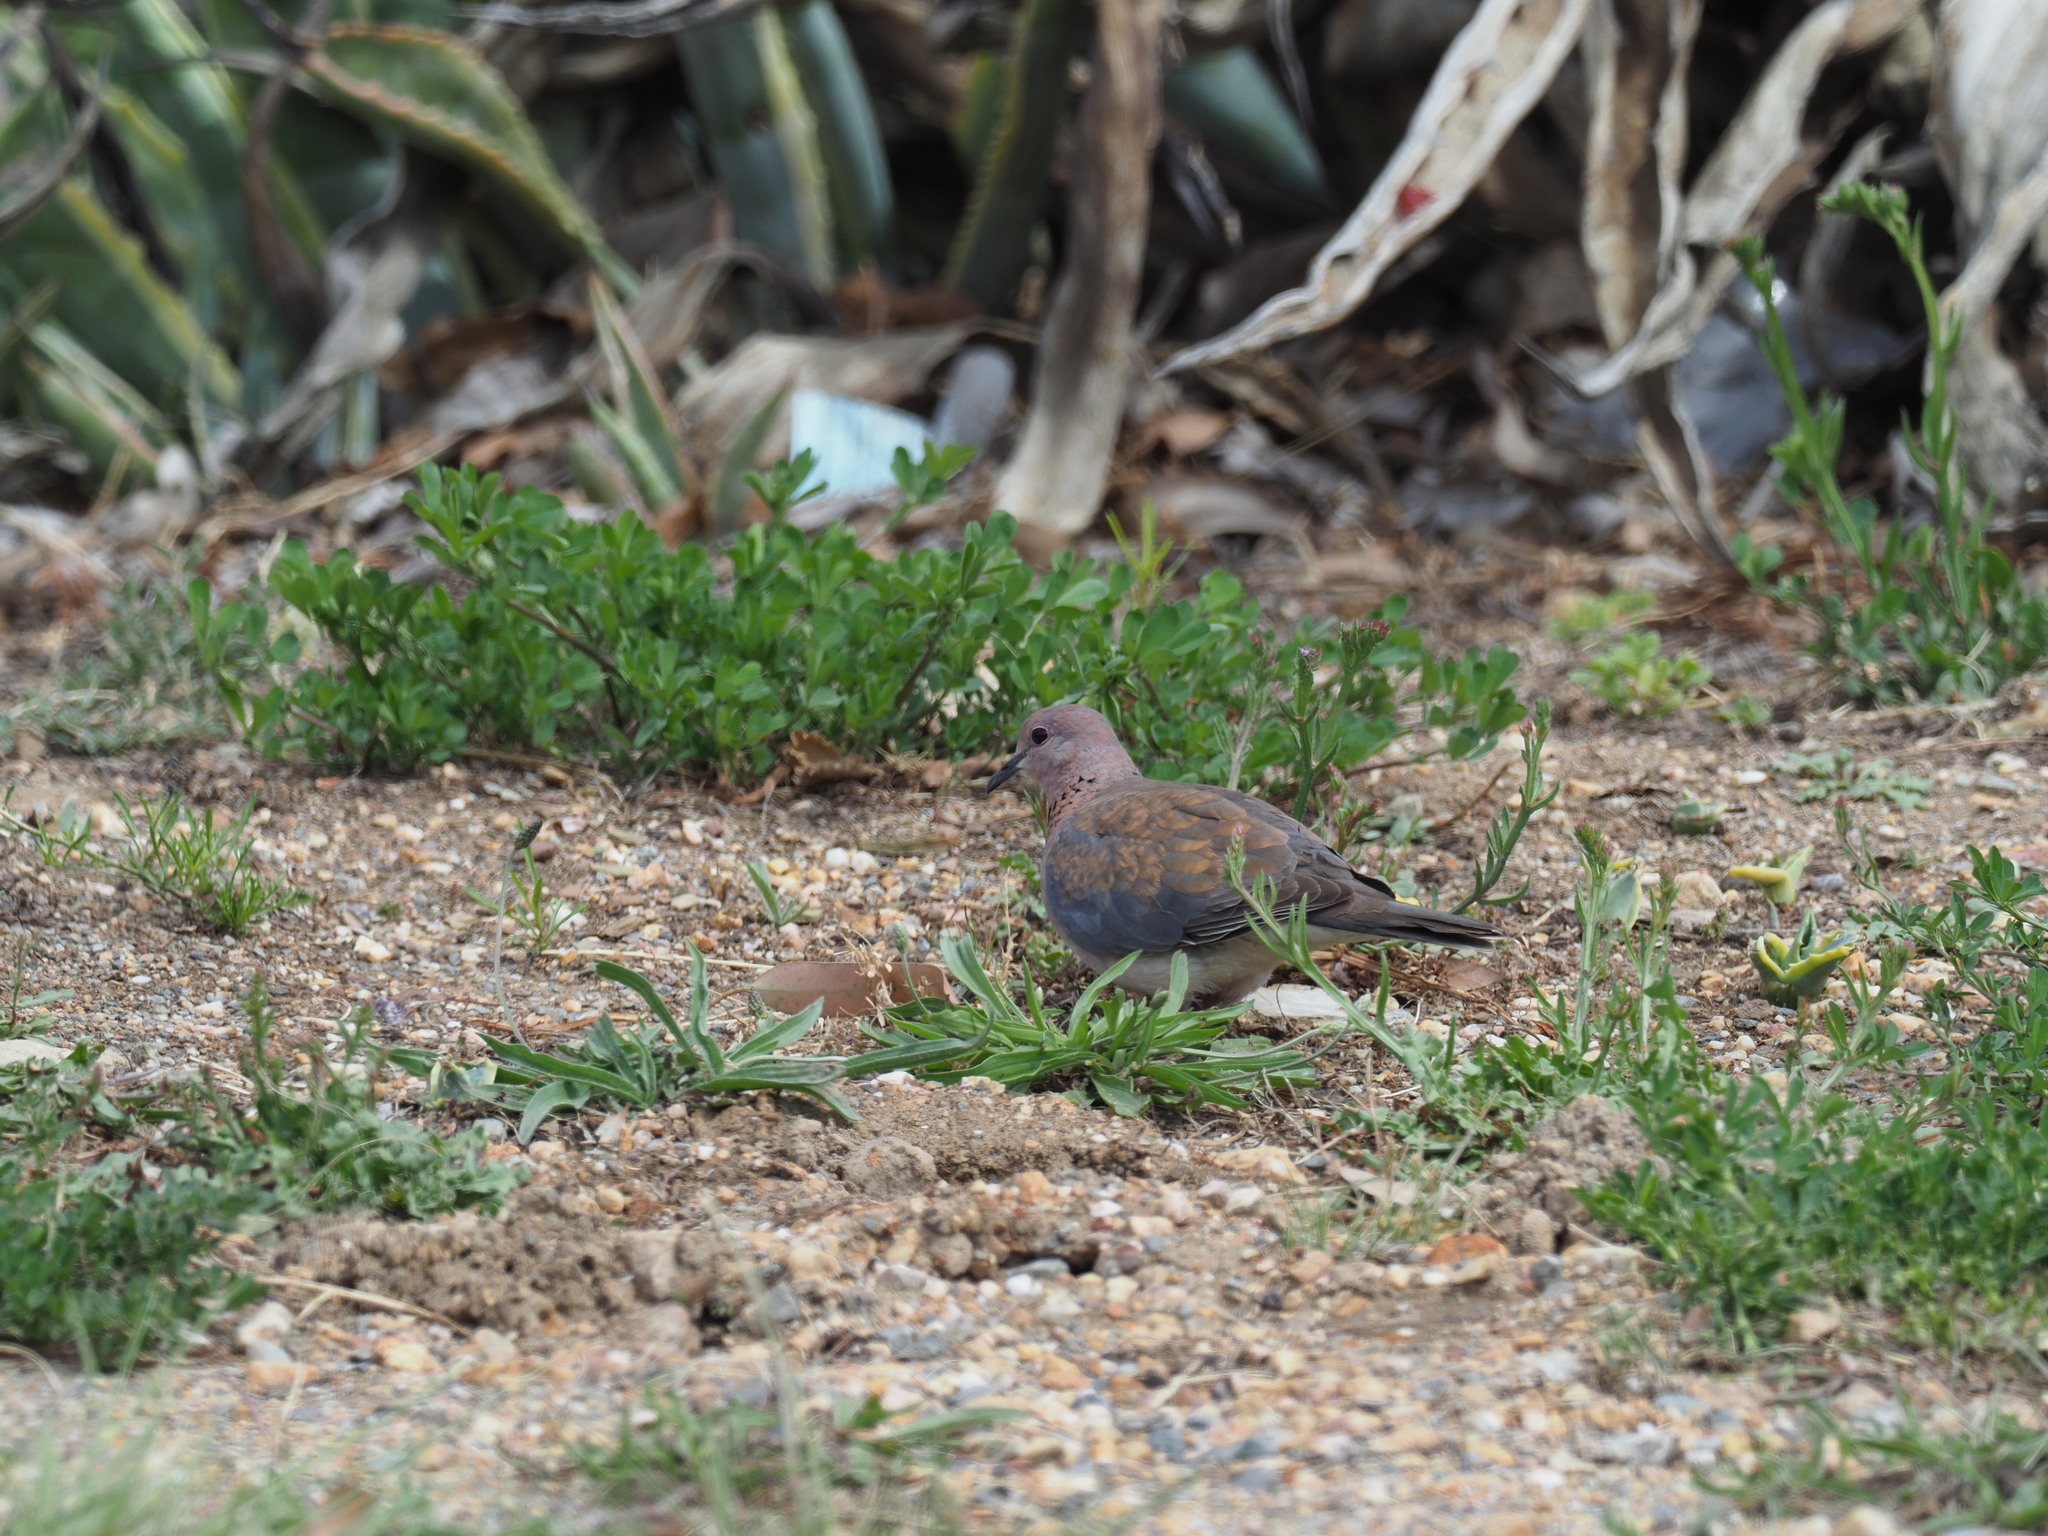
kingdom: Animalia
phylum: Chordata
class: Aves
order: Columbiformes
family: Columbidae
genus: Spilopelia
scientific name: Spilopelia senegalensis
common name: Laughing dove
